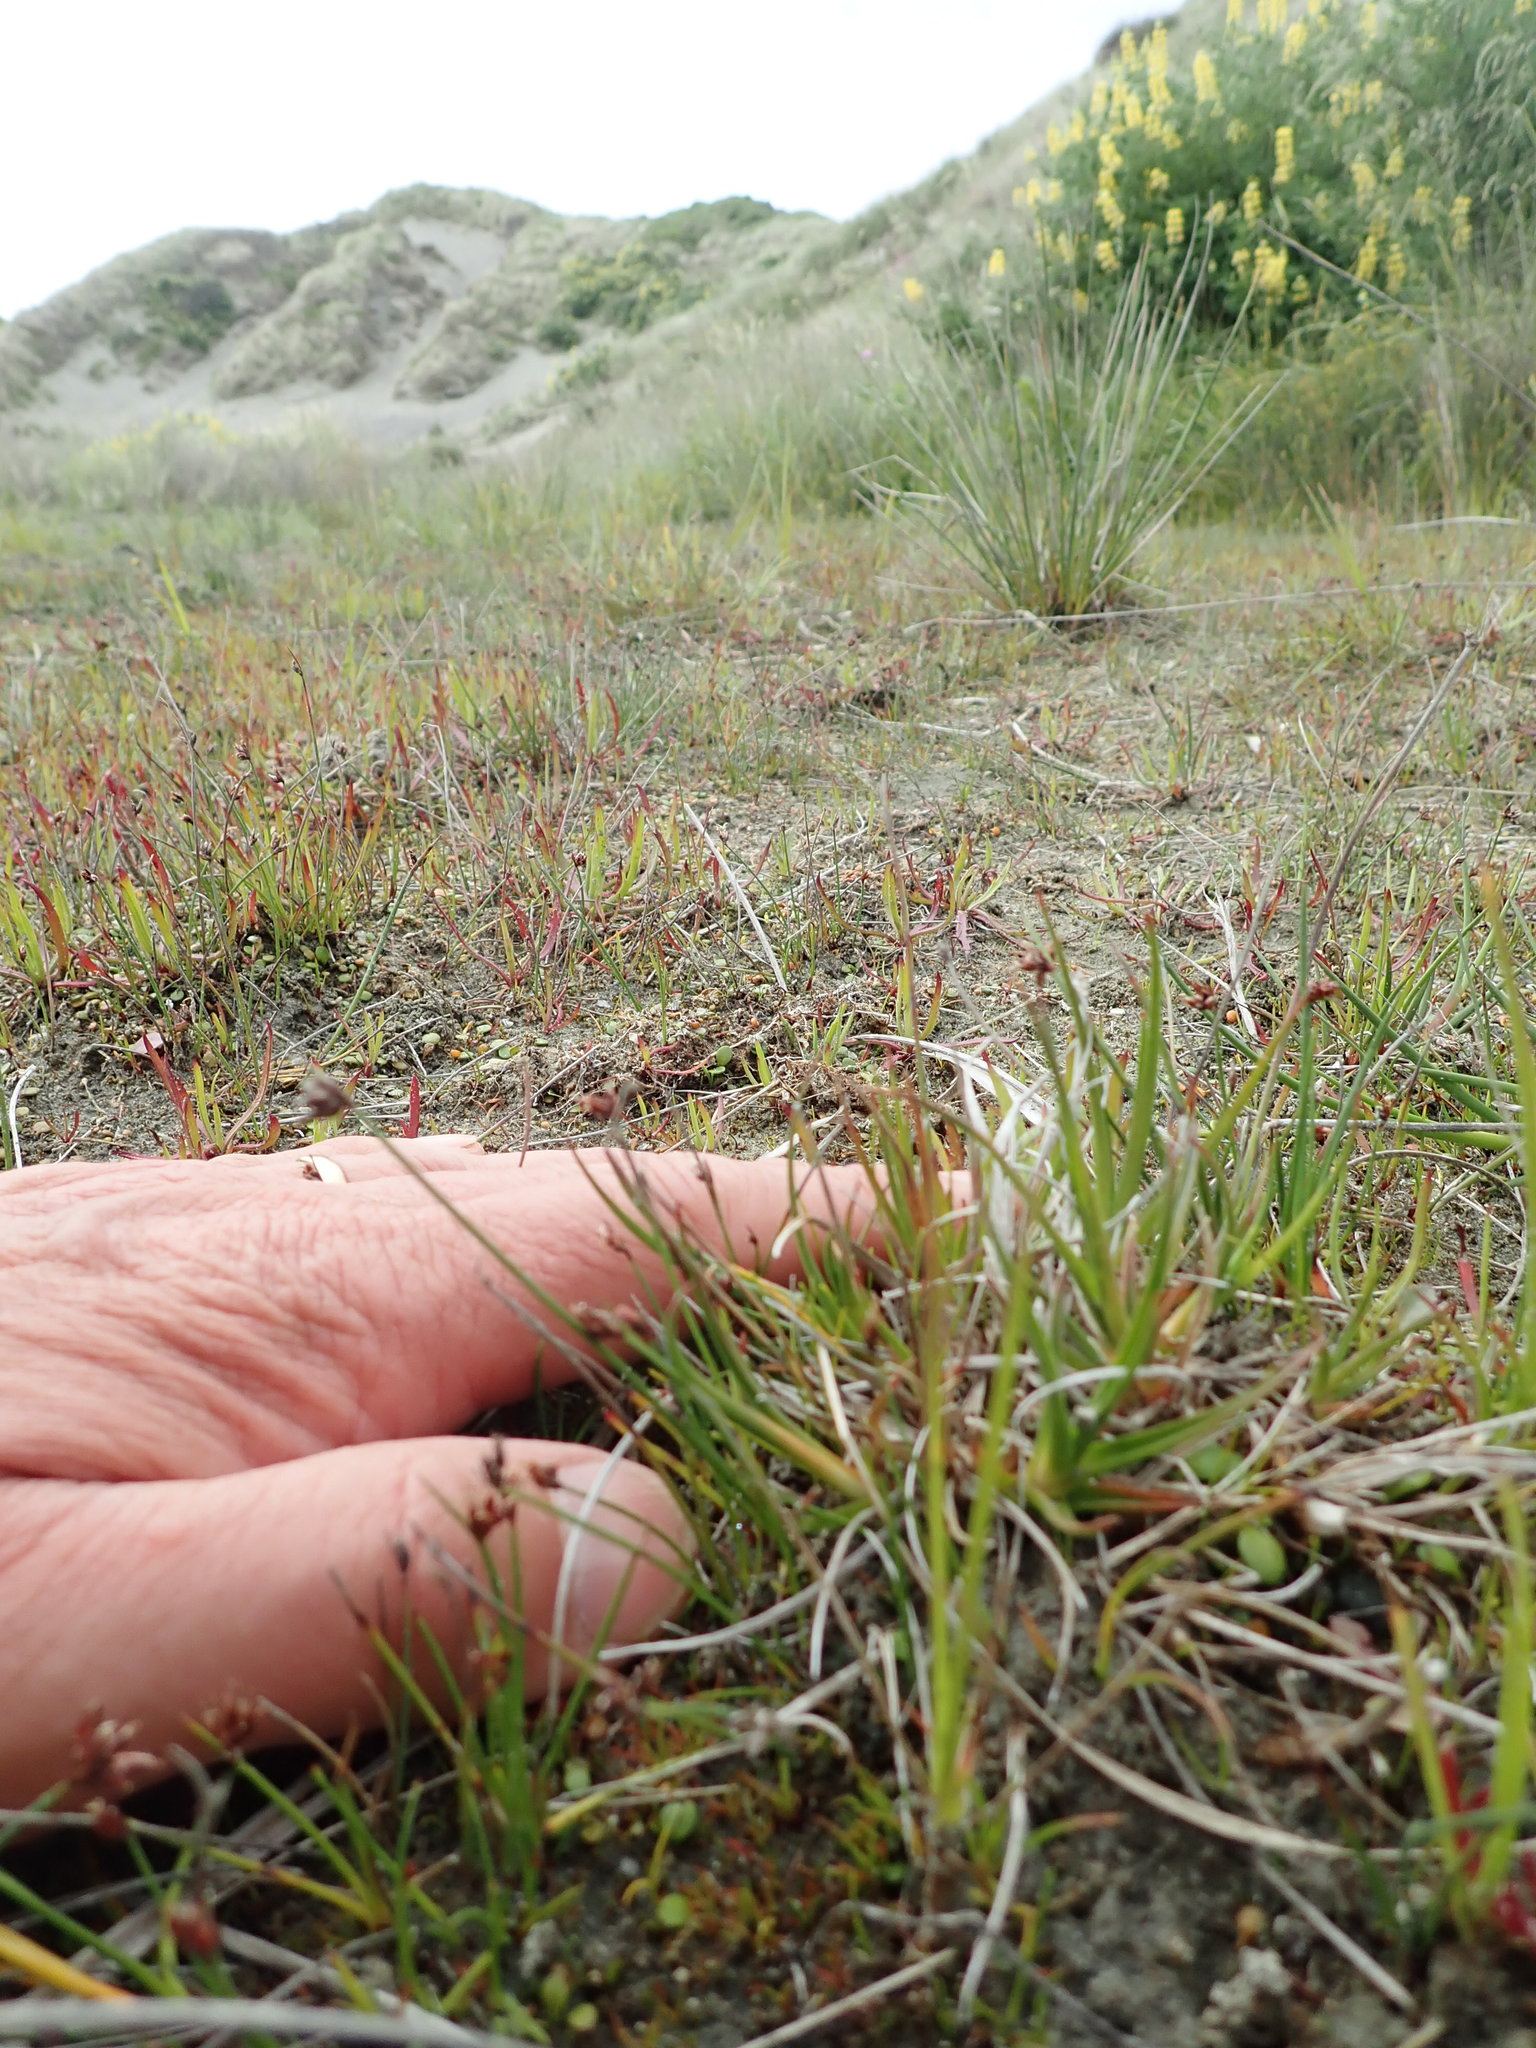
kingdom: Plantae
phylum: Tracheophyta
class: Liliopsida
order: Poales
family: Juncaceae
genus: Juncus
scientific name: Juncus caespiticius
